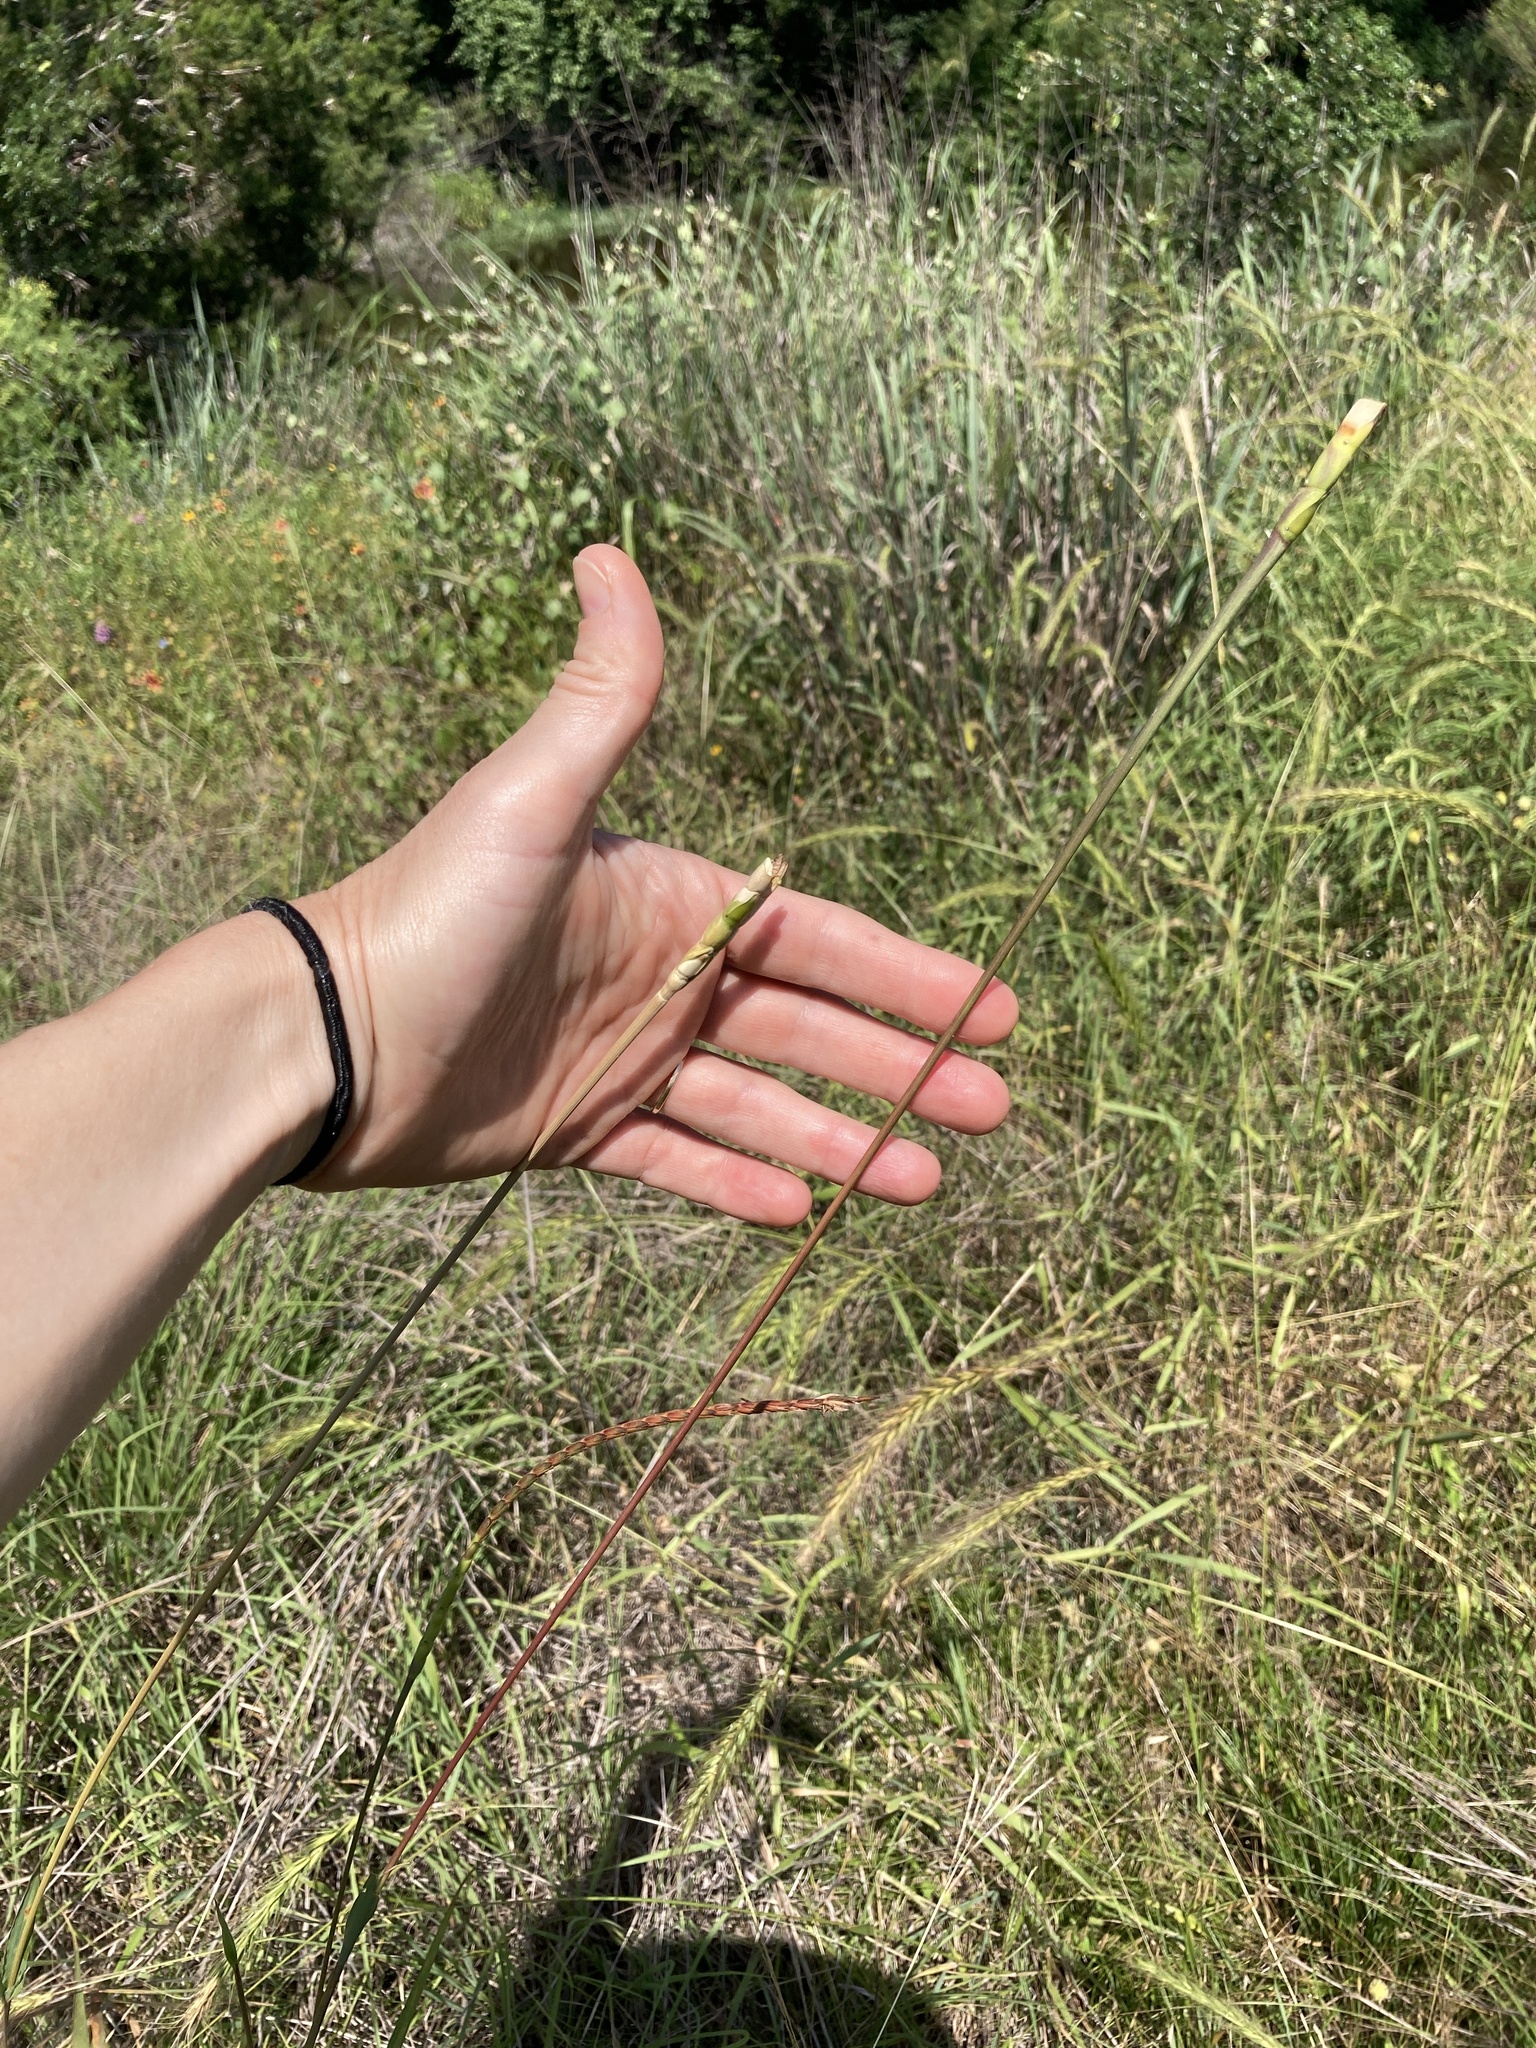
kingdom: Plantae
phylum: Tracheophyta
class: Liliopsida
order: Poales
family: Poaceae
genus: Tripsacum
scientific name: Tripsacum dactyloides
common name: Buffalo-grass
